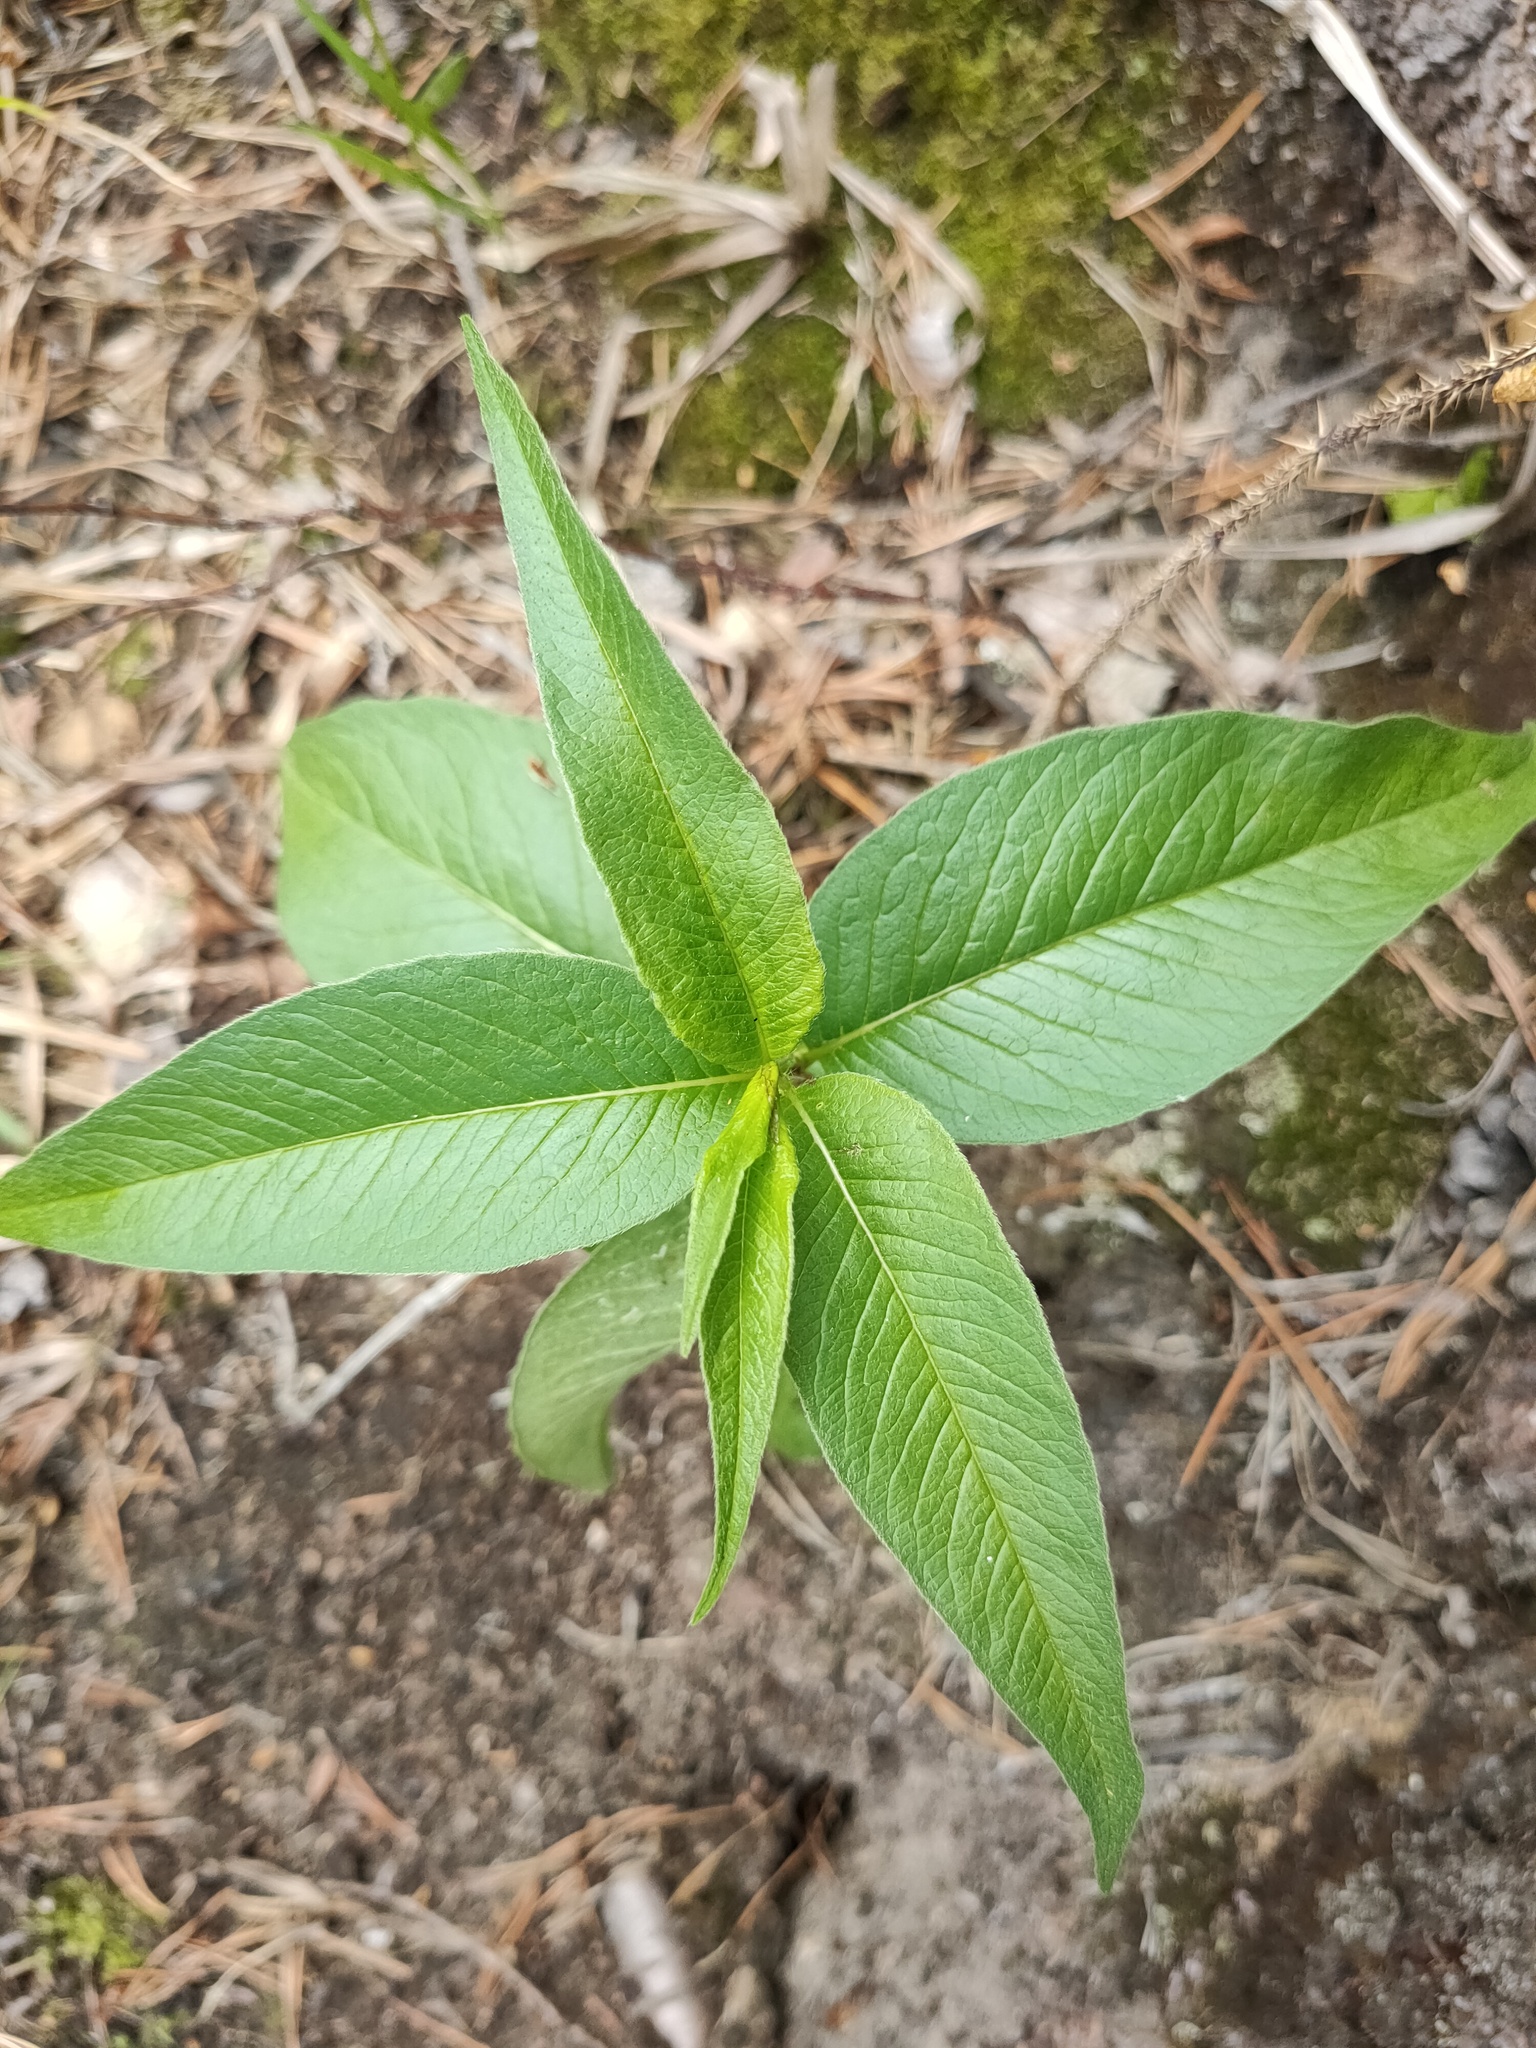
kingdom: Plantae
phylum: Tracheophyta
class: Magnoliopsida
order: Caryophyllales
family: Polygonaceae
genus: Koenigia
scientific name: Koenigia alpina
